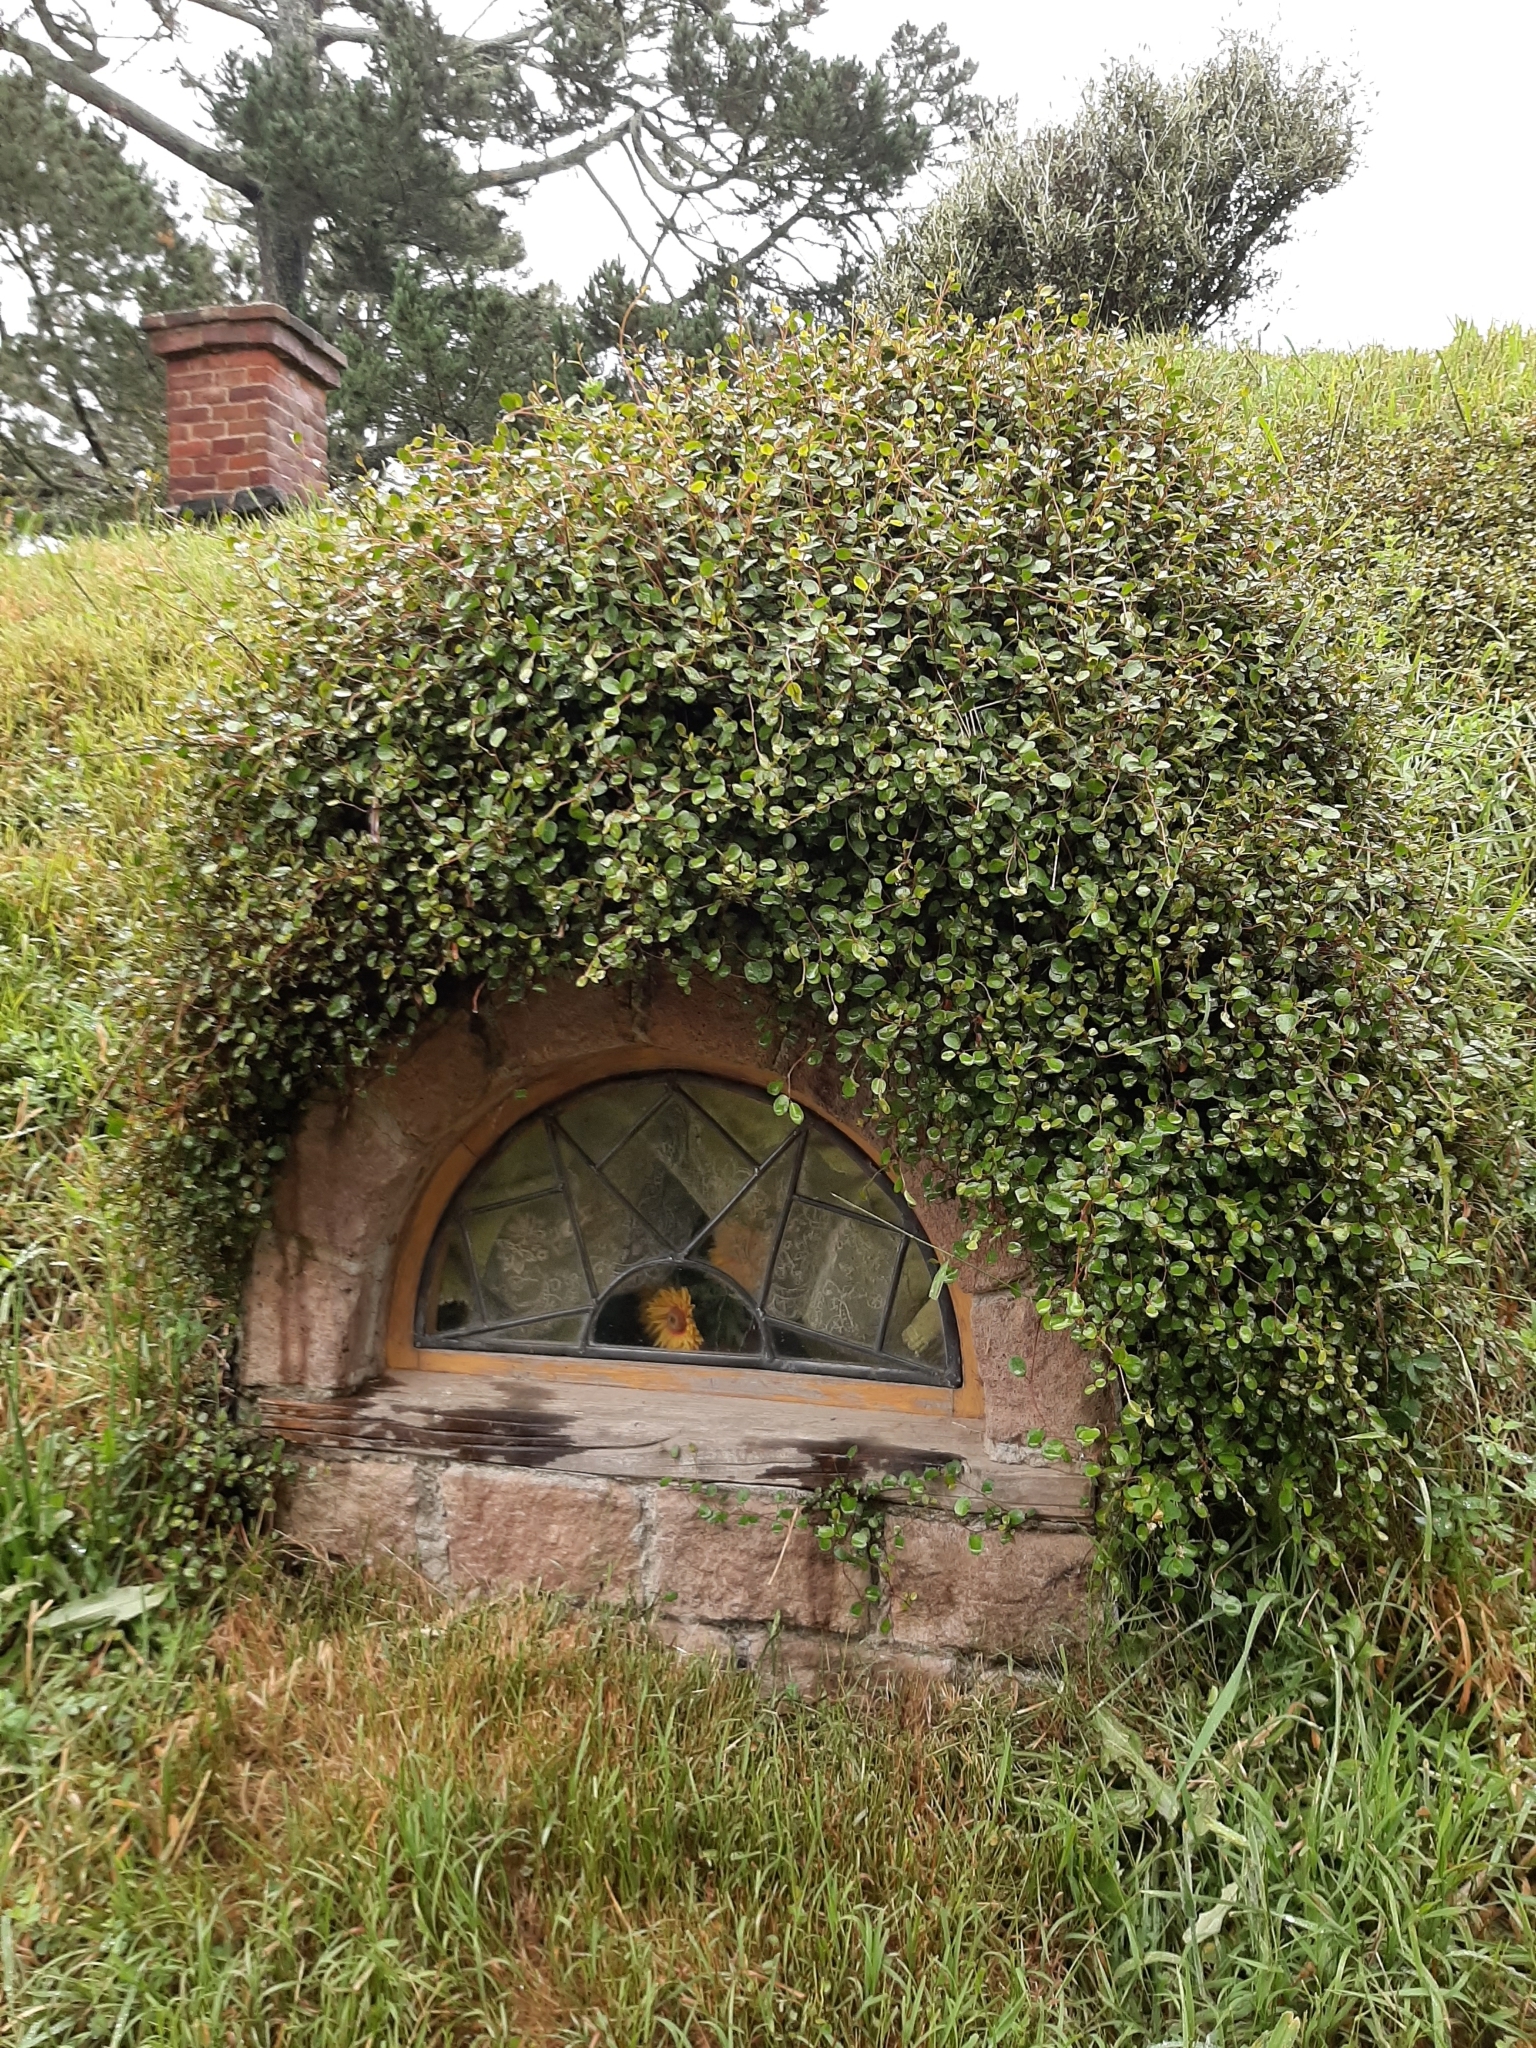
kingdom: Plantae
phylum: Tracheophyta
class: Magnoliopsida
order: Caryophyllales
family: Polygonaceae
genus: Muehlenbeckia
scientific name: Muehlenbeckia complexa
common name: Wireplant
